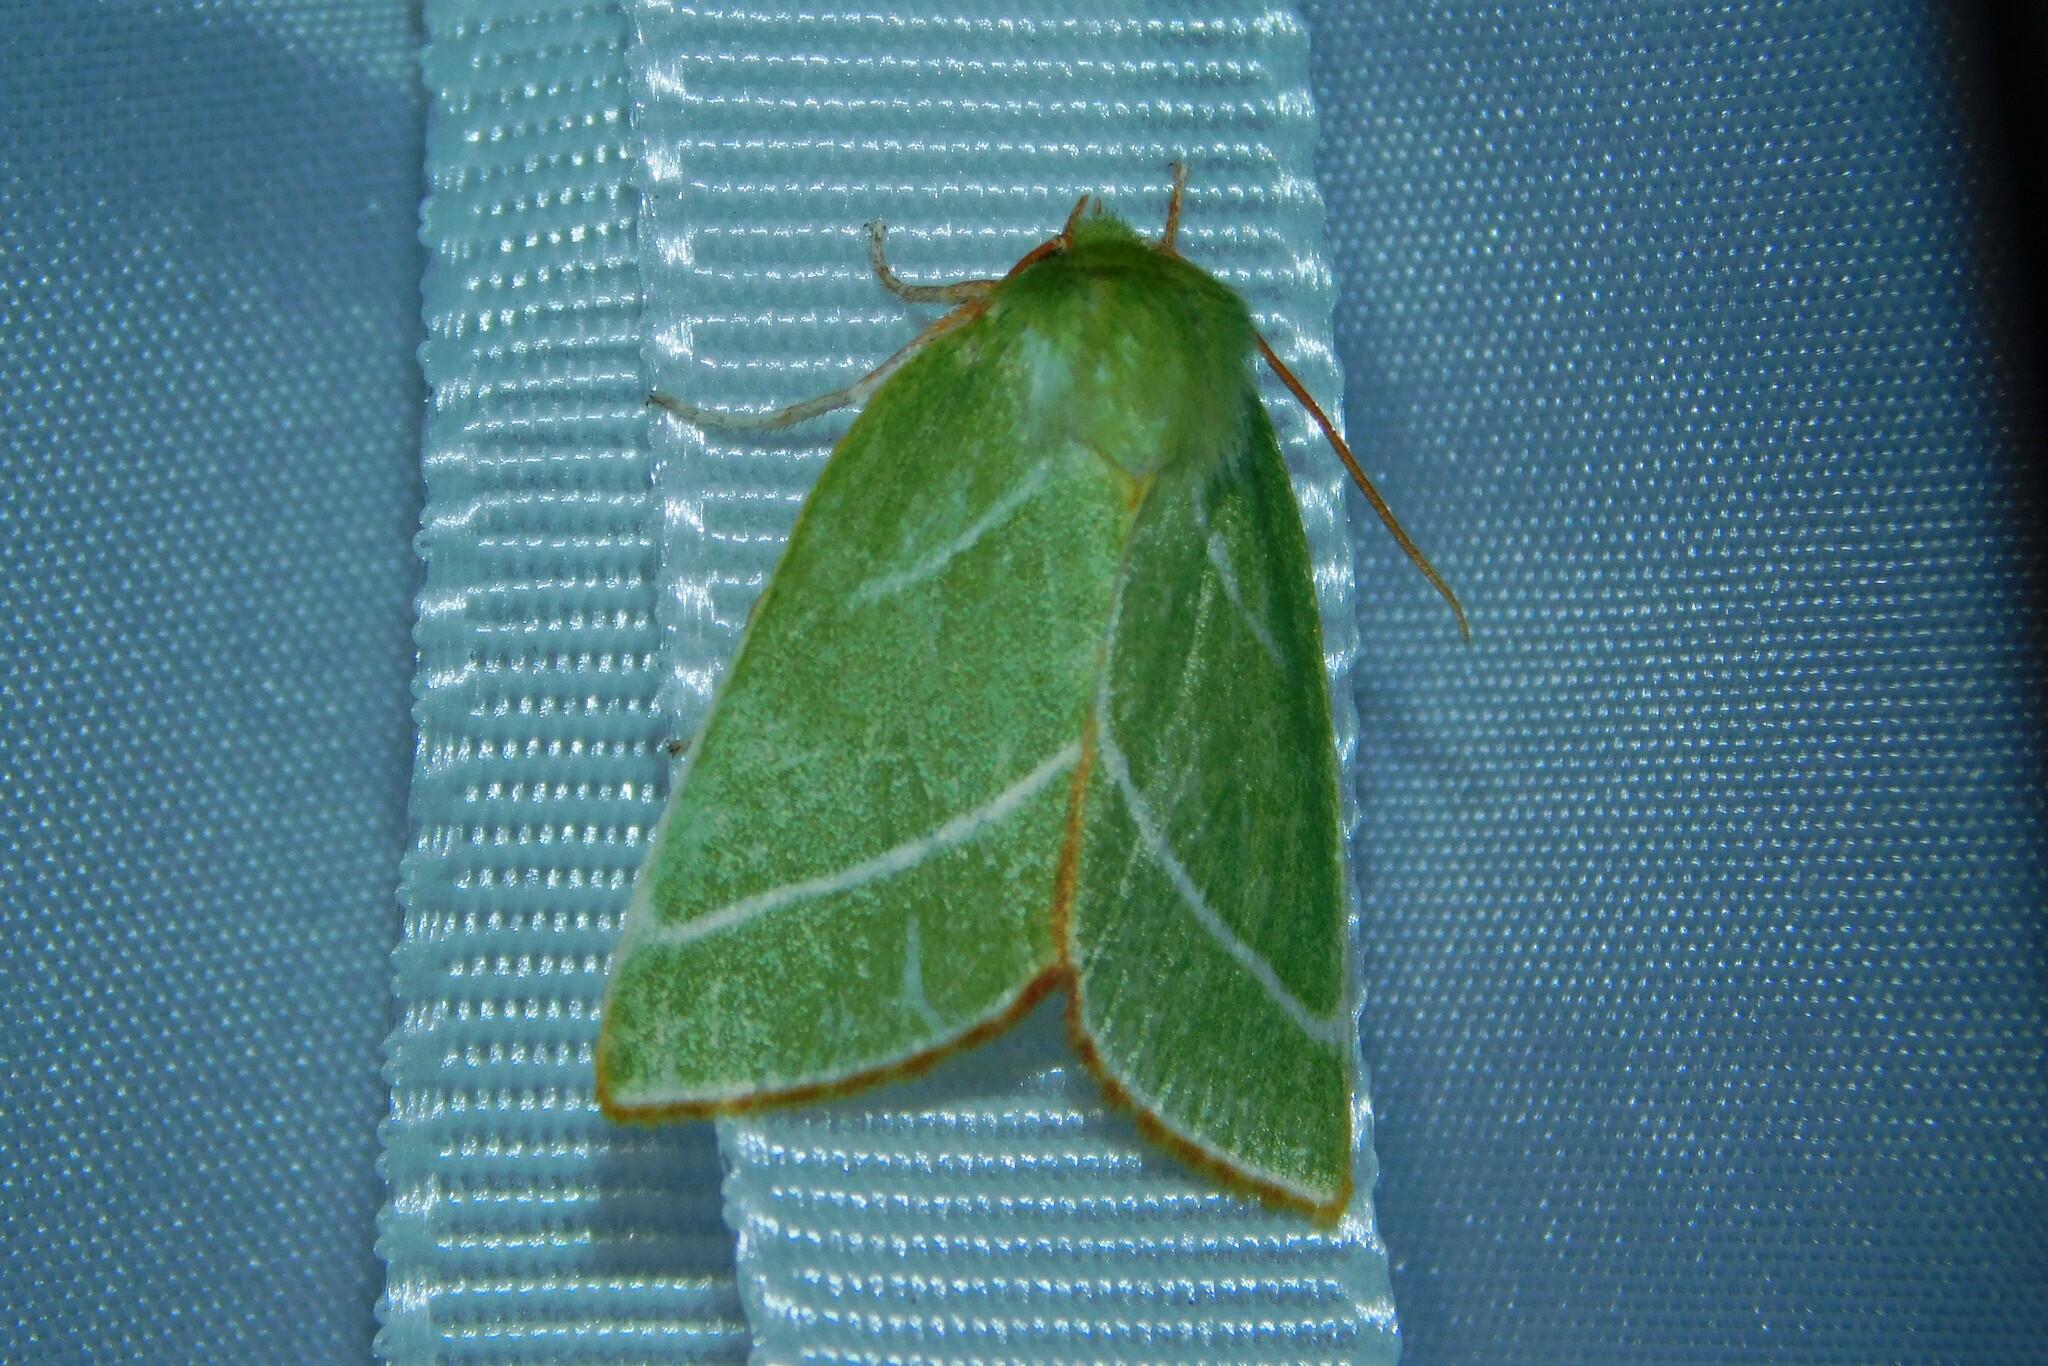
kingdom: Animalia
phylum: Arthropoda
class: Insecta
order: Lepidoptera
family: Nolidae
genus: Pseudoips
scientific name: Pseudoips prasinana
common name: Green silver-lines
